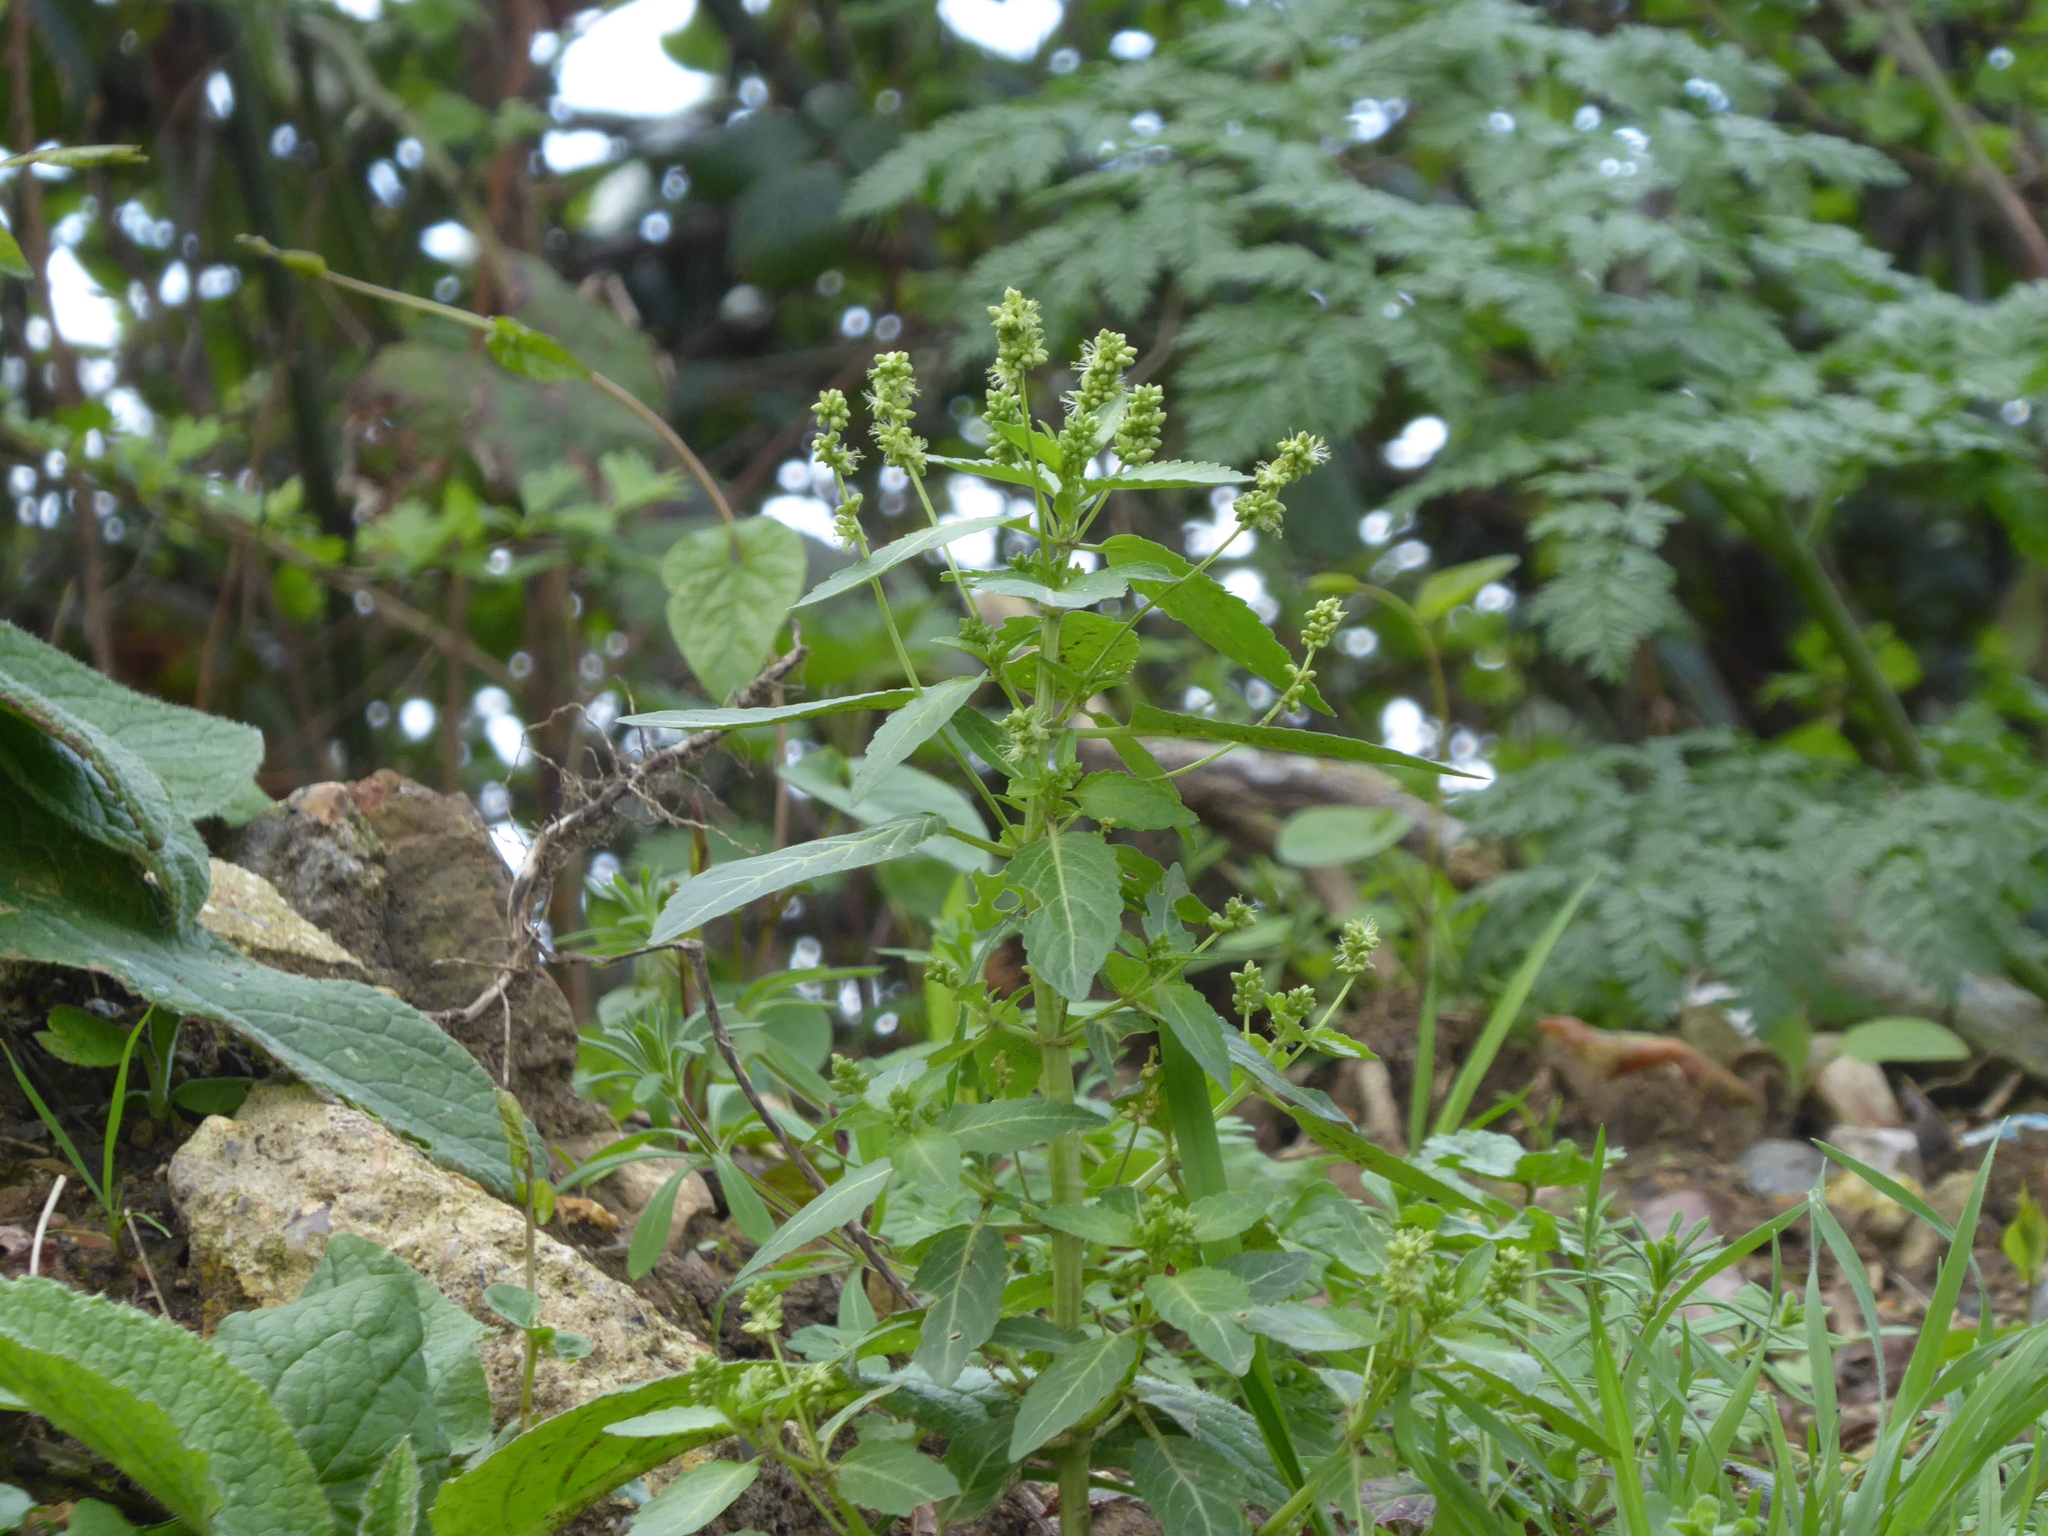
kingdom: Plantae
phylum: Tracheophyta
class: Magnoliopsida
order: Malpighiales
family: Euphorbiaceae
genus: Mercurialis
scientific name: Mercurialis annua
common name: Annual mercury
